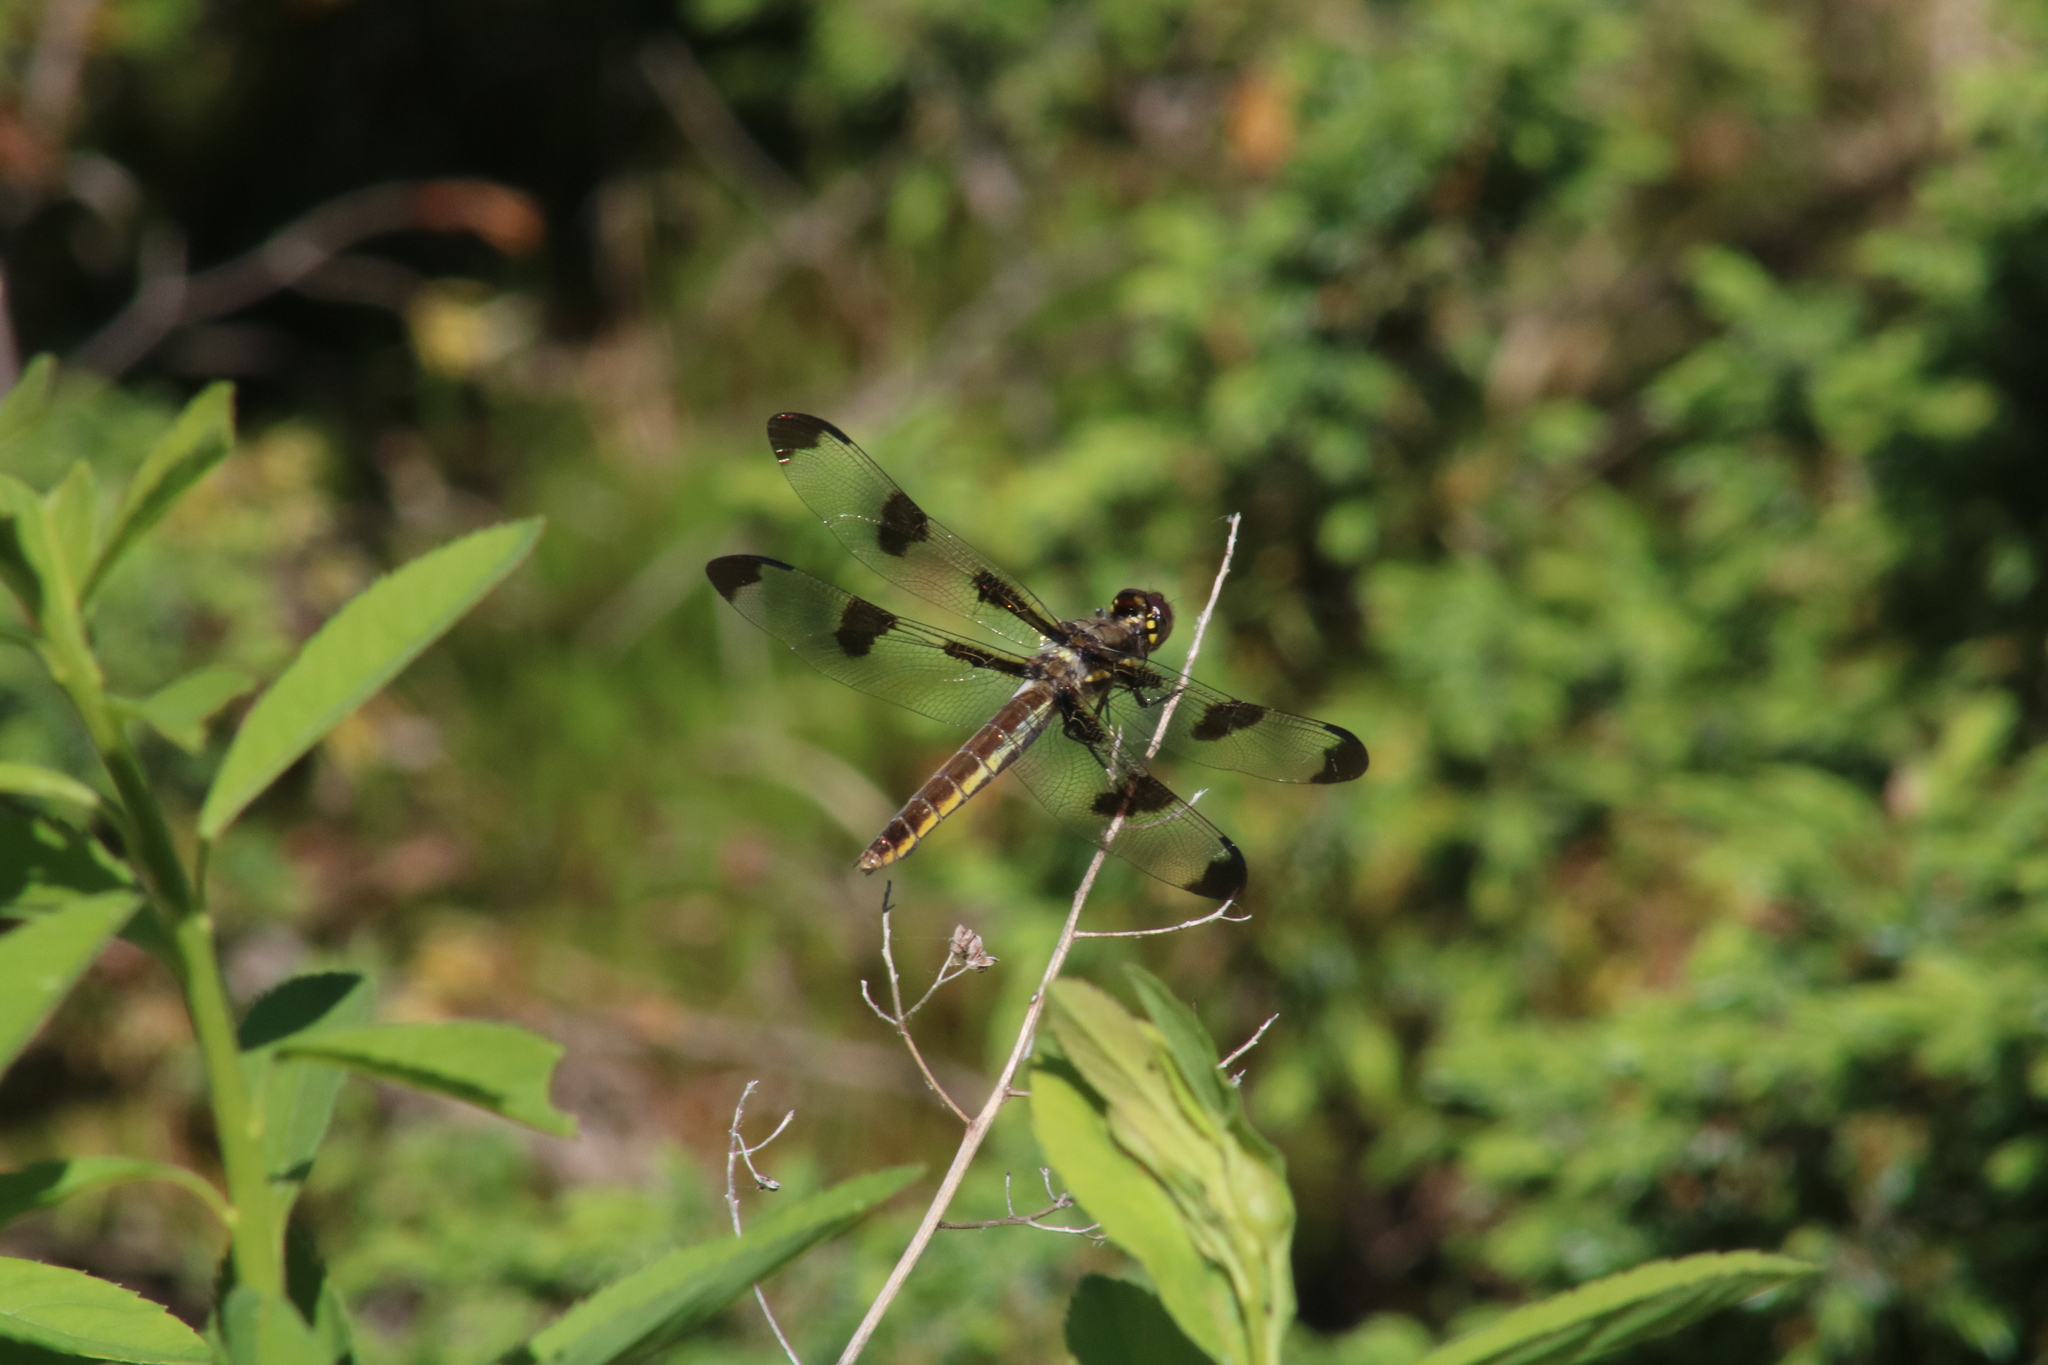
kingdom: Animalia
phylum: Arthropoda
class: Insecta
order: Odonata
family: Libellulidae
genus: Libellula
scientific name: Libellula pulchella
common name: Twelve-spotted skimmer
